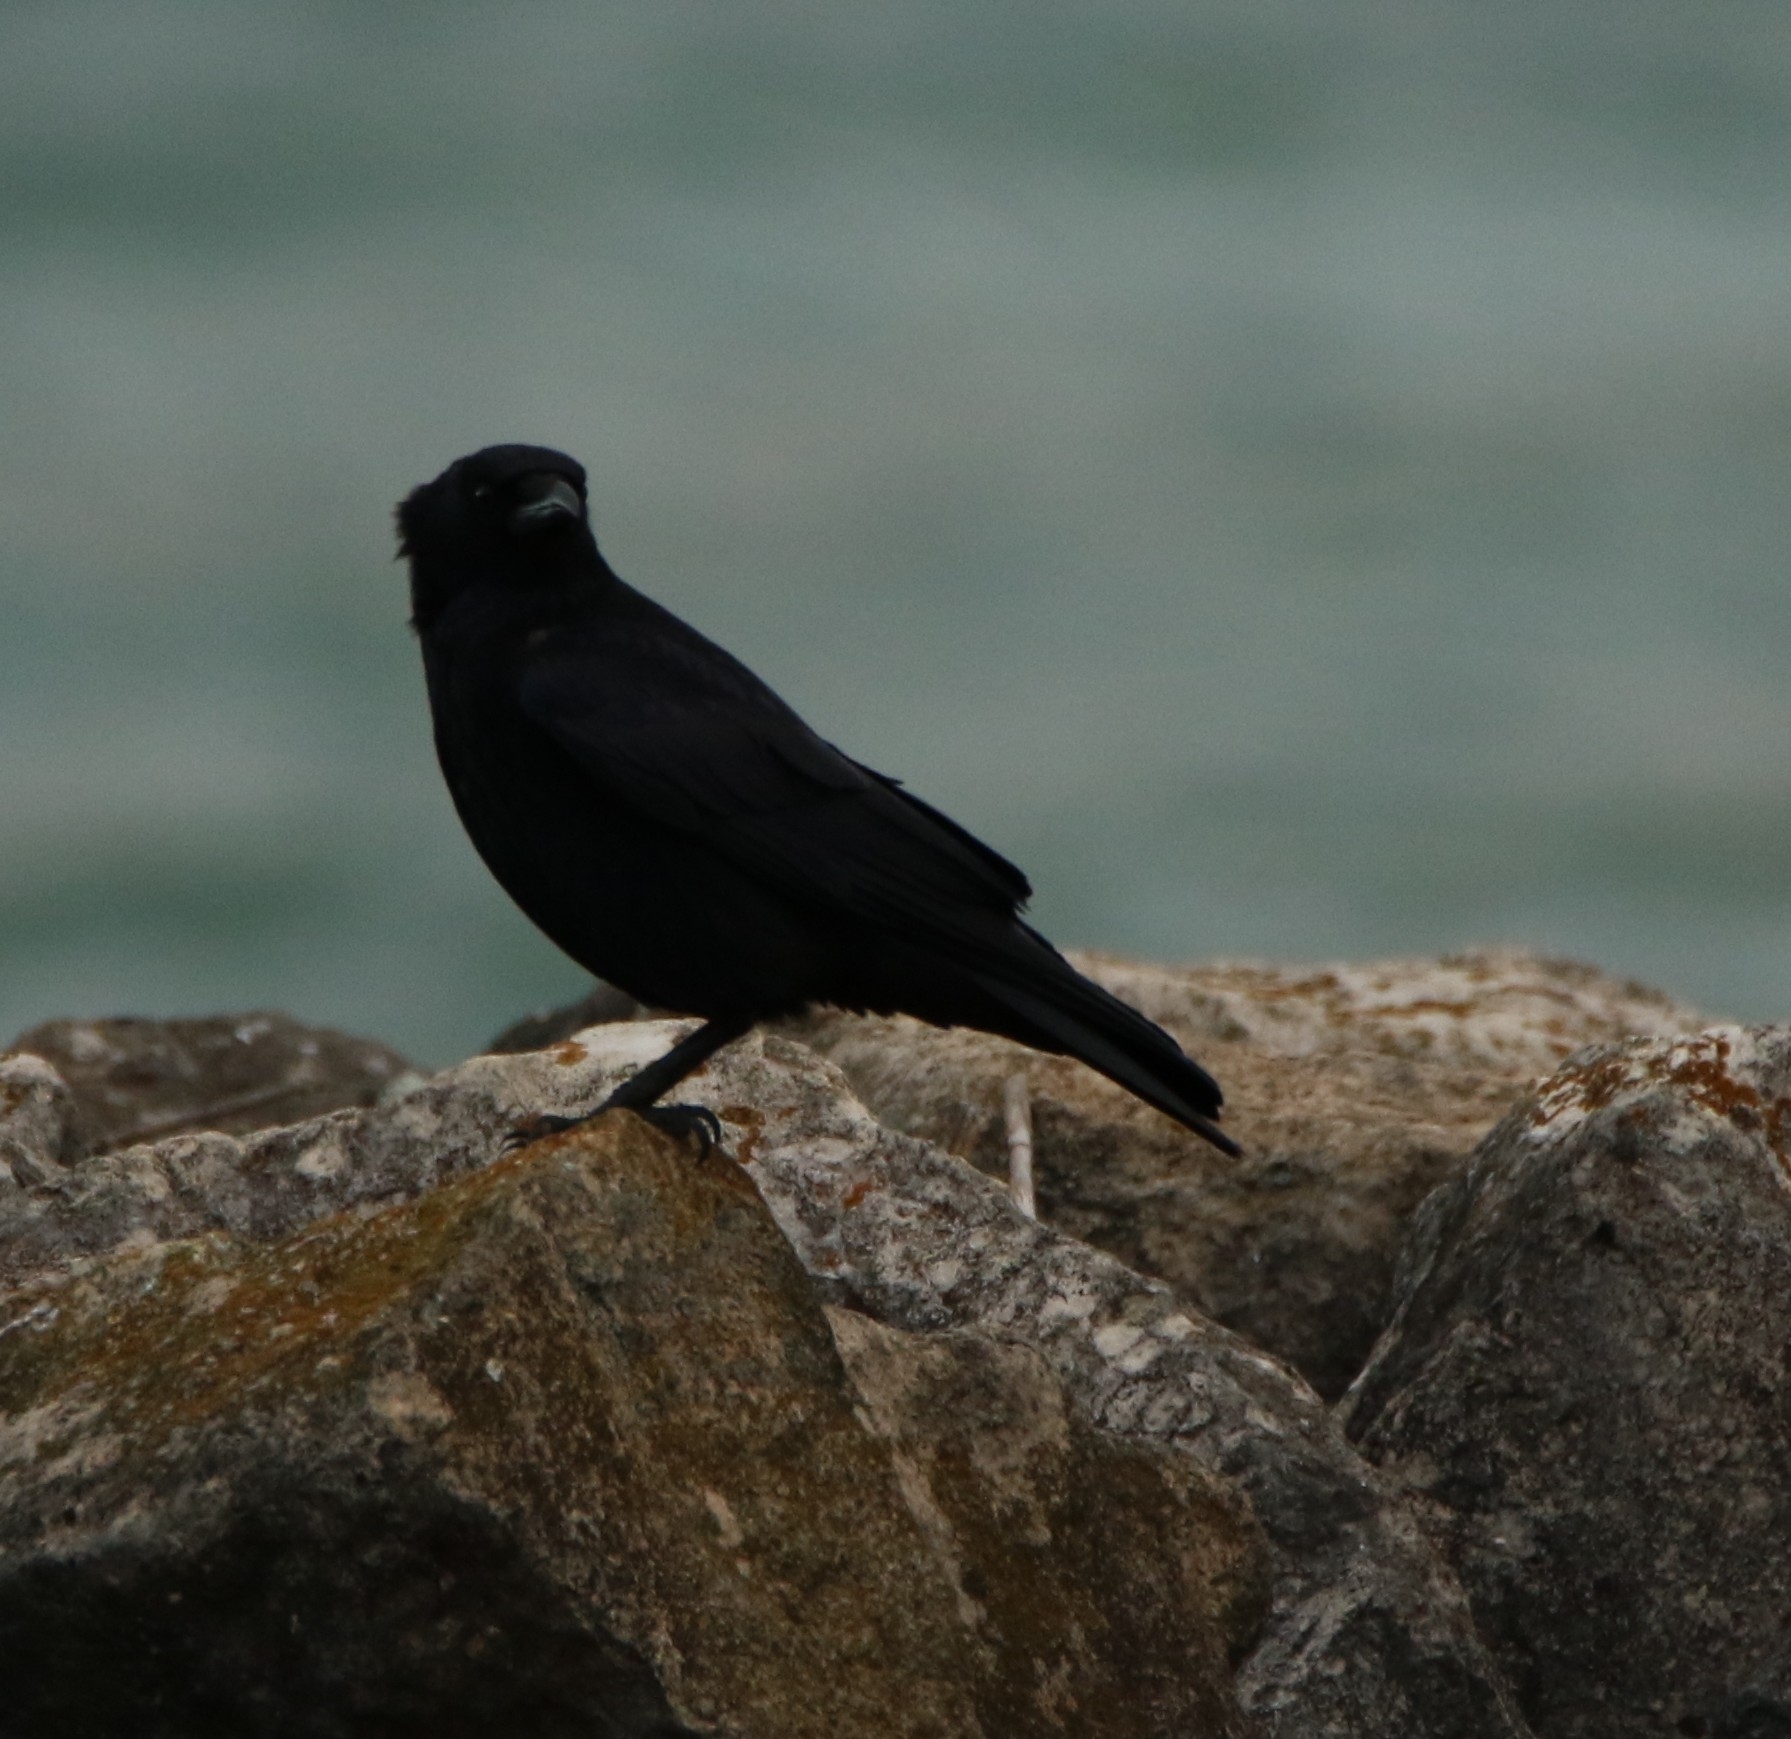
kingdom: Animalia
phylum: Chordata
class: Aves
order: Passeriformes
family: Corvidae
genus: Corvus
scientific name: Corvus corone
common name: Carrion crow
